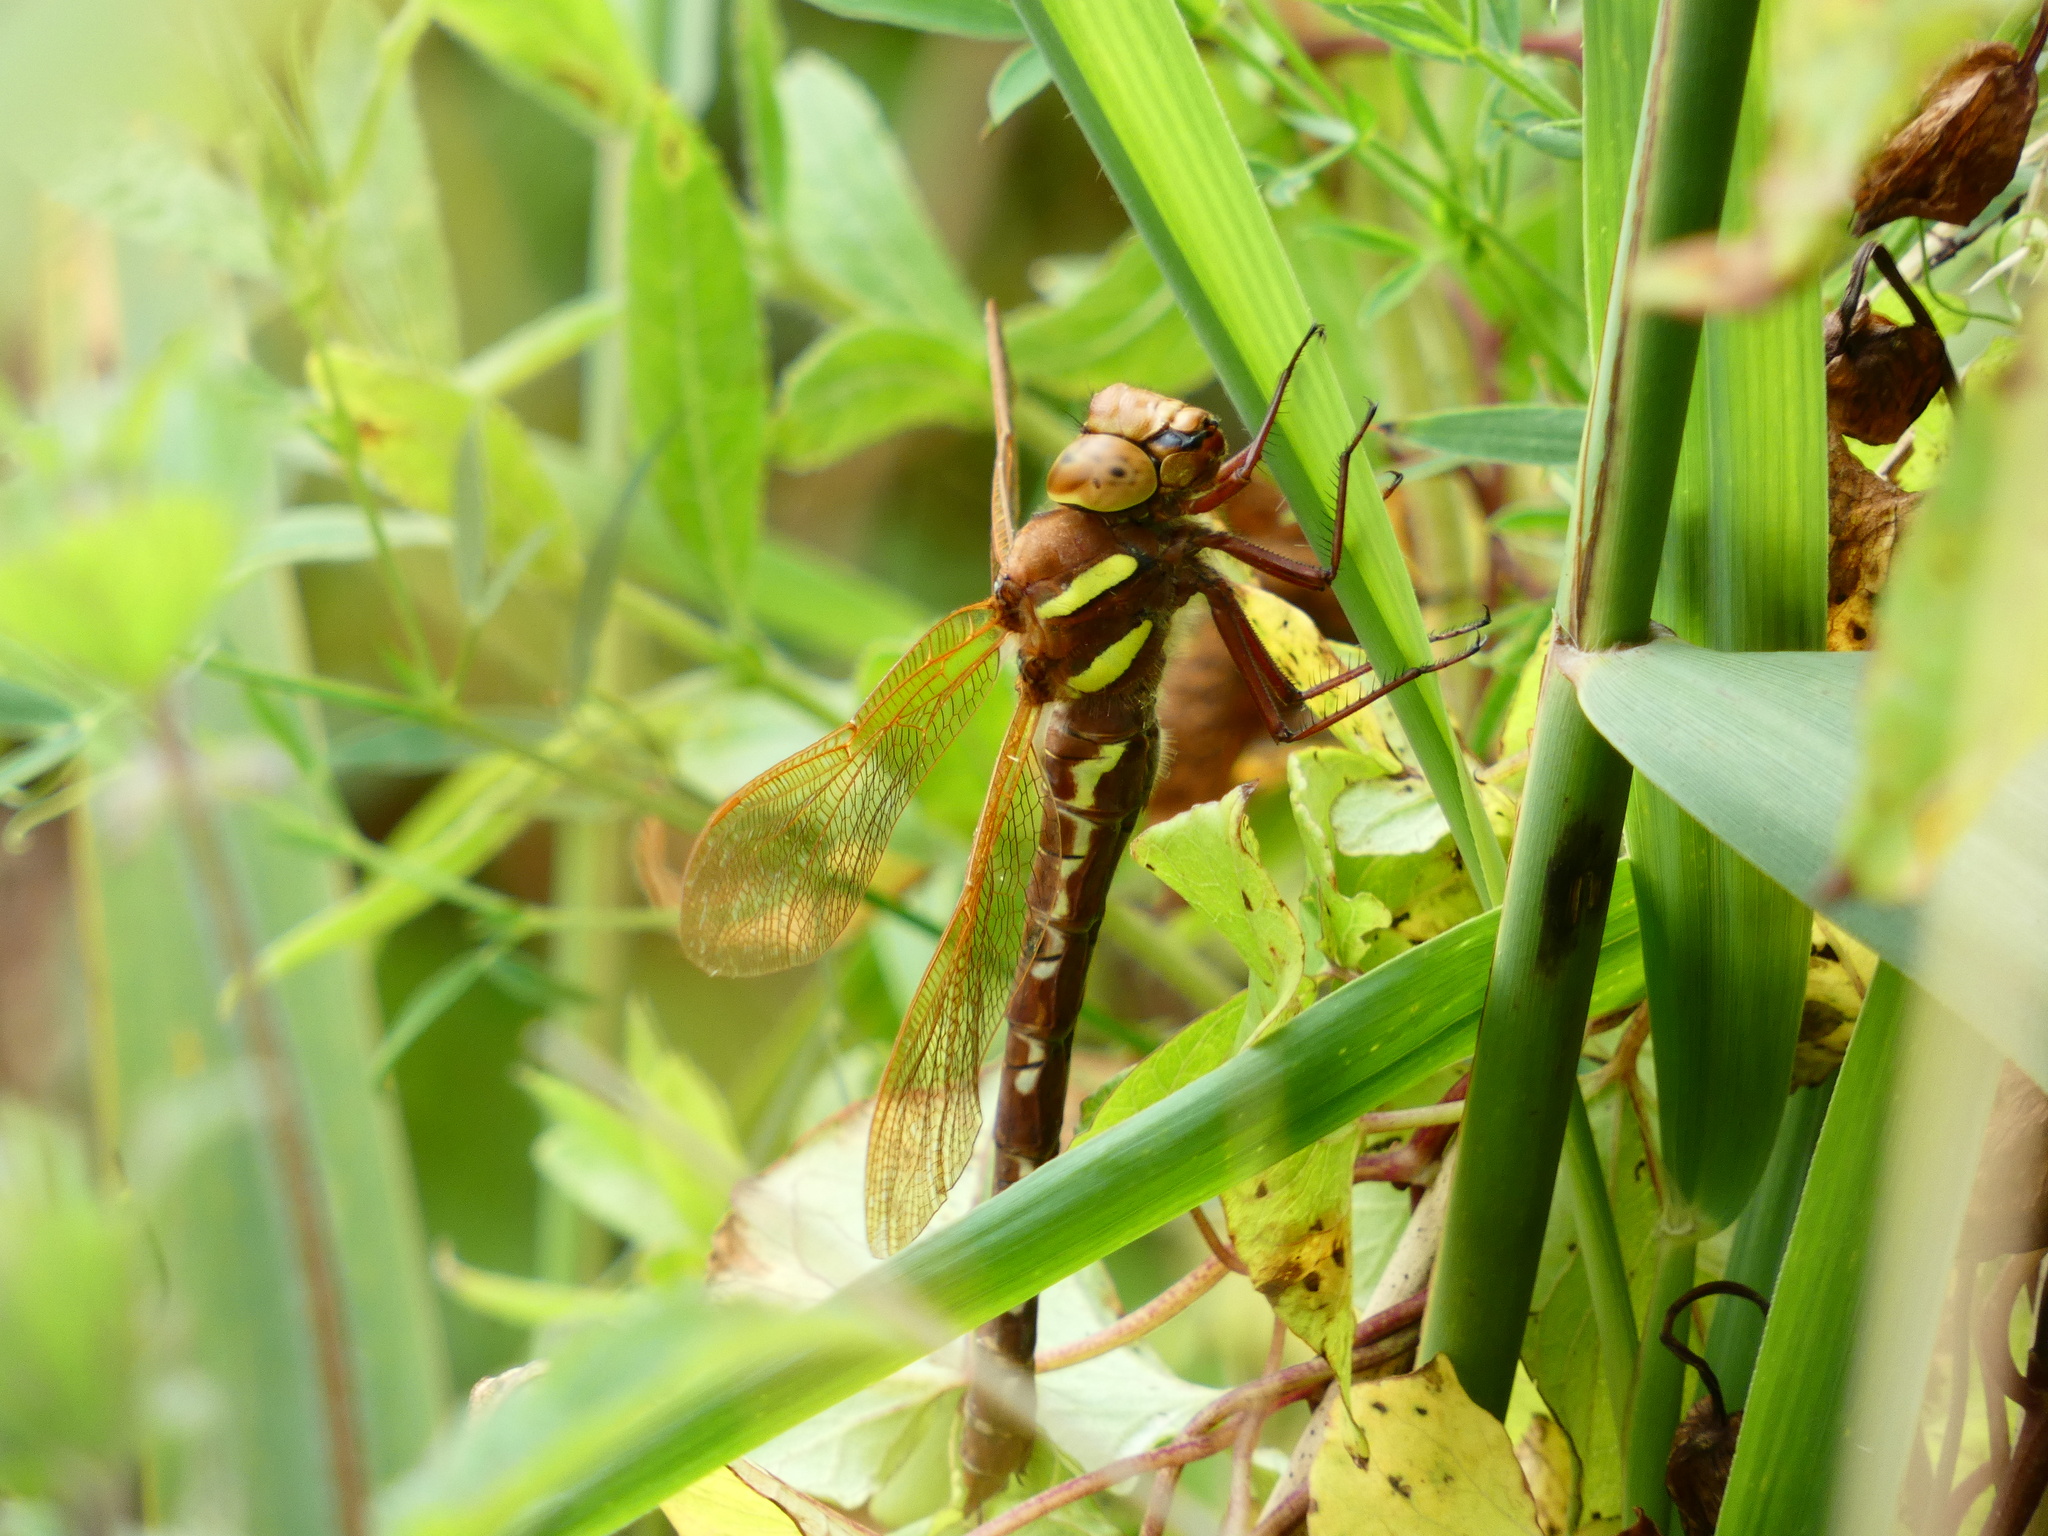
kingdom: Animalia
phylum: Arthropoda
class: Insecta
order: Odonata
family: Aeshnidae
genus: Aeshna
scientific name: Aeshna grandis
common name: Brown hawker
